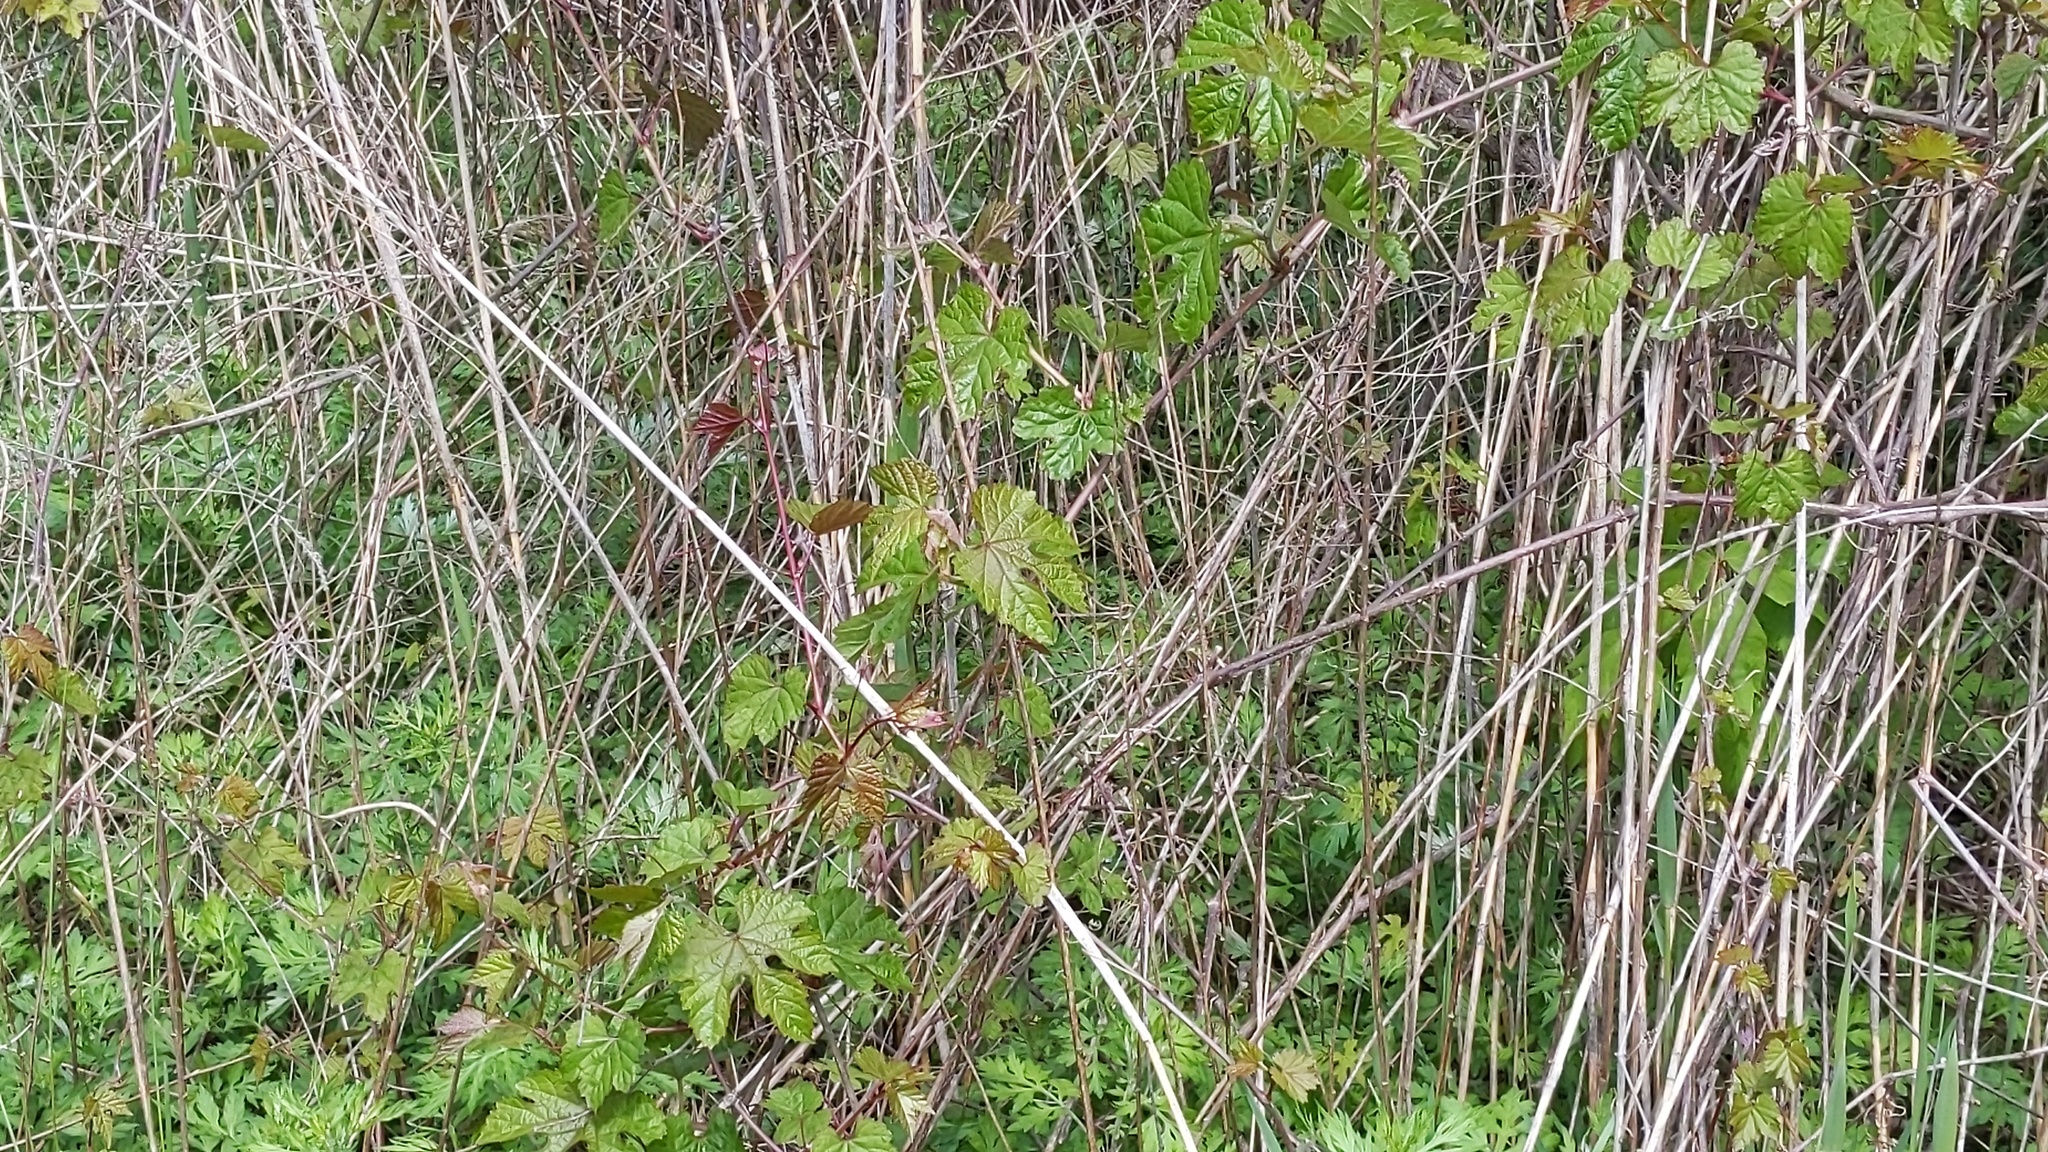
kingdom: Plantae
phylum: Tracheophyta
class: Magnoliopsida
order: Vitales
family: Vitaceae
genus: Ampelopsis
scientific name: Ampelopsis glandulosa
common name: Amur peppervine
